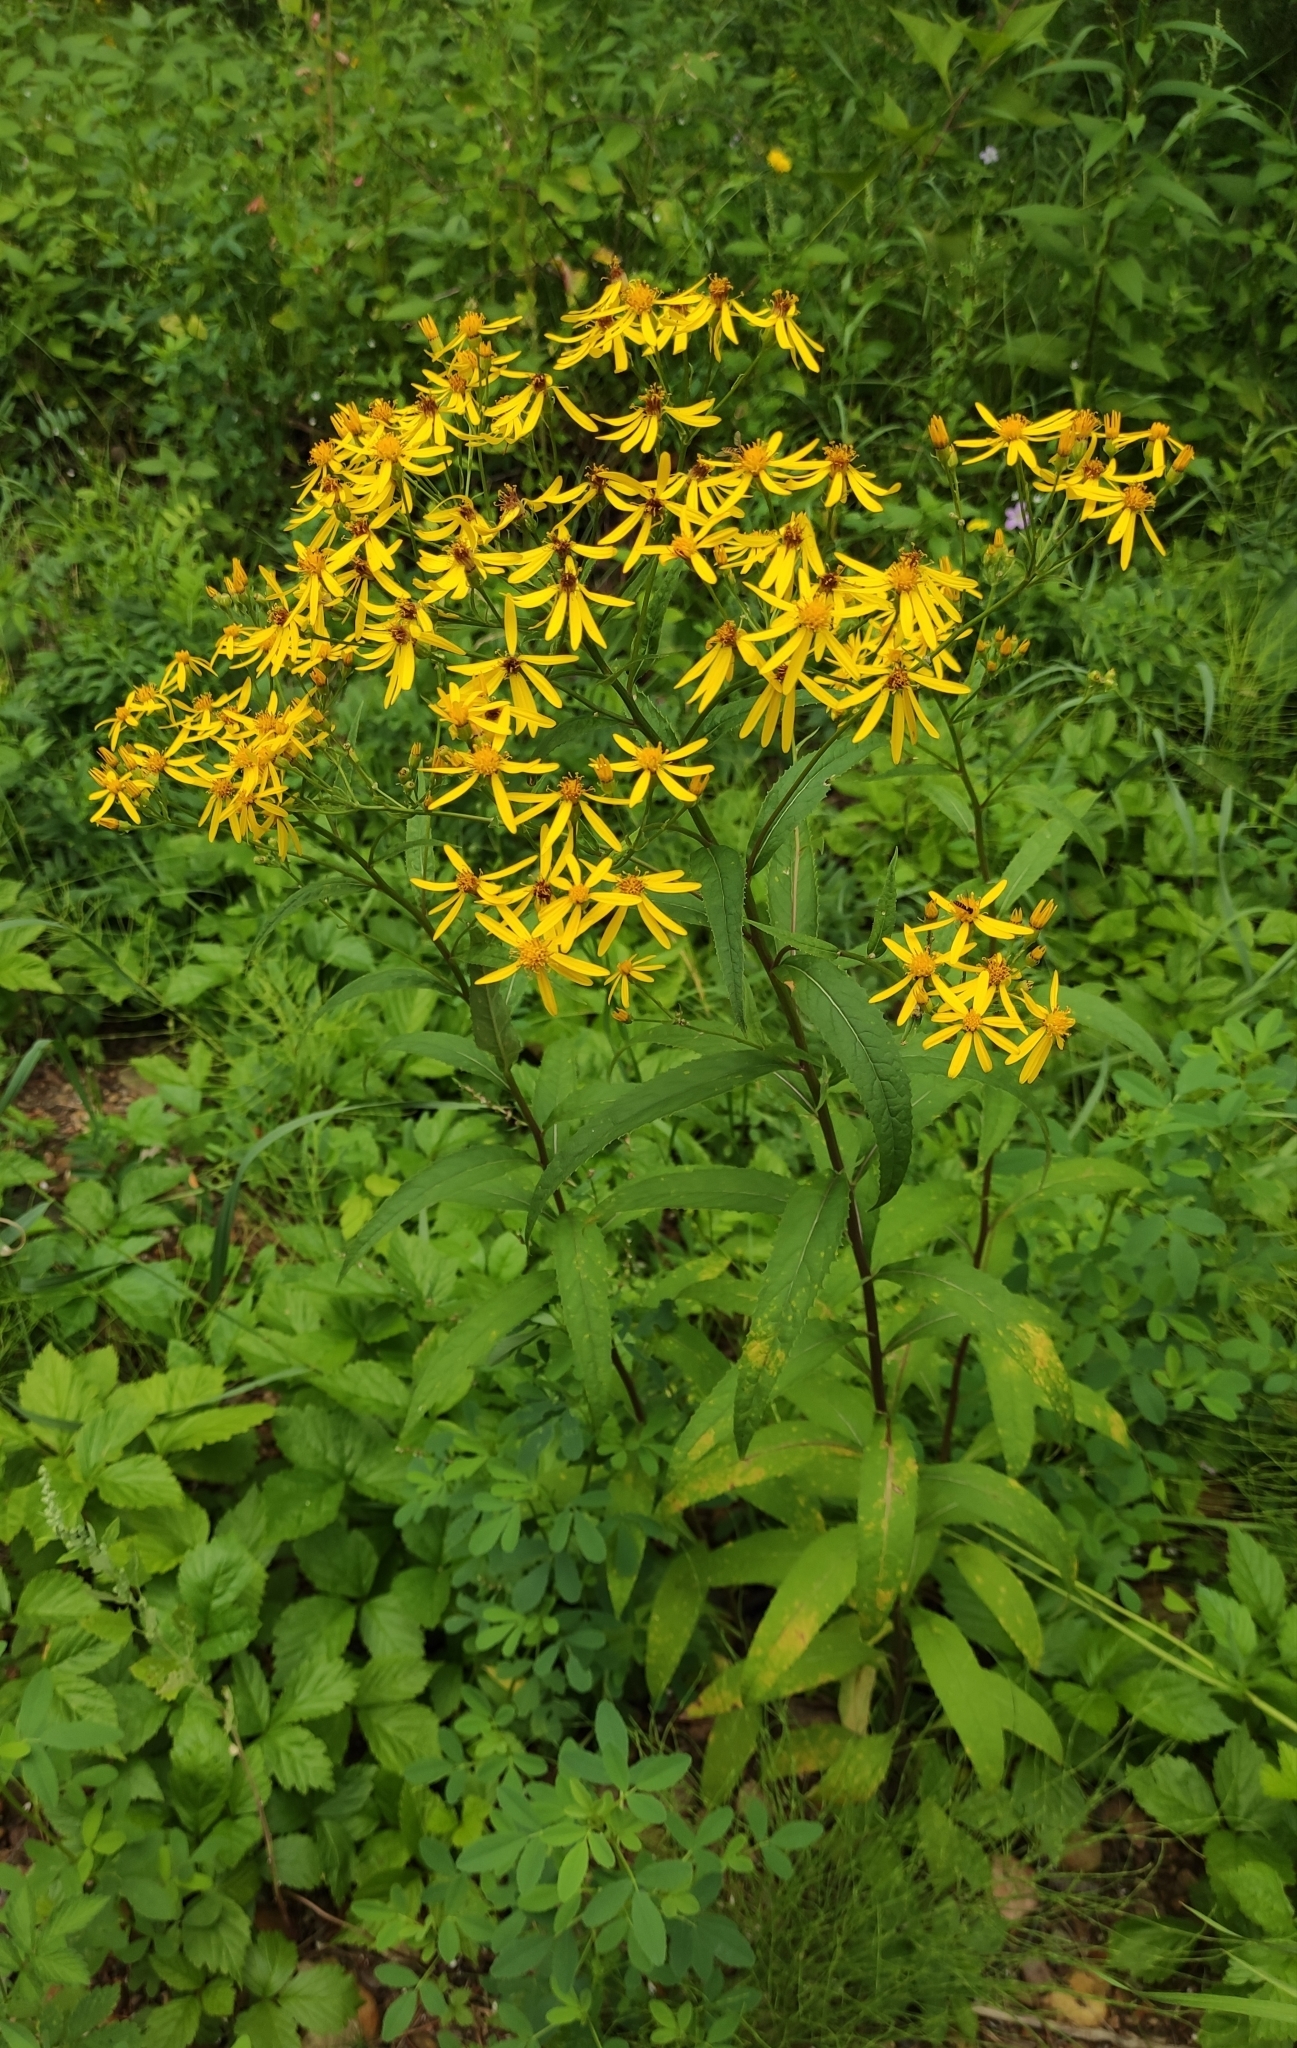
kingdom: Plantae
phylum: Tracheophyta
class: Magnoliopsida
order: Asterales
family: Asteraceae
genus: Senecio
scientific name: Senecio nemorensis
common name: Alpine ragwort
